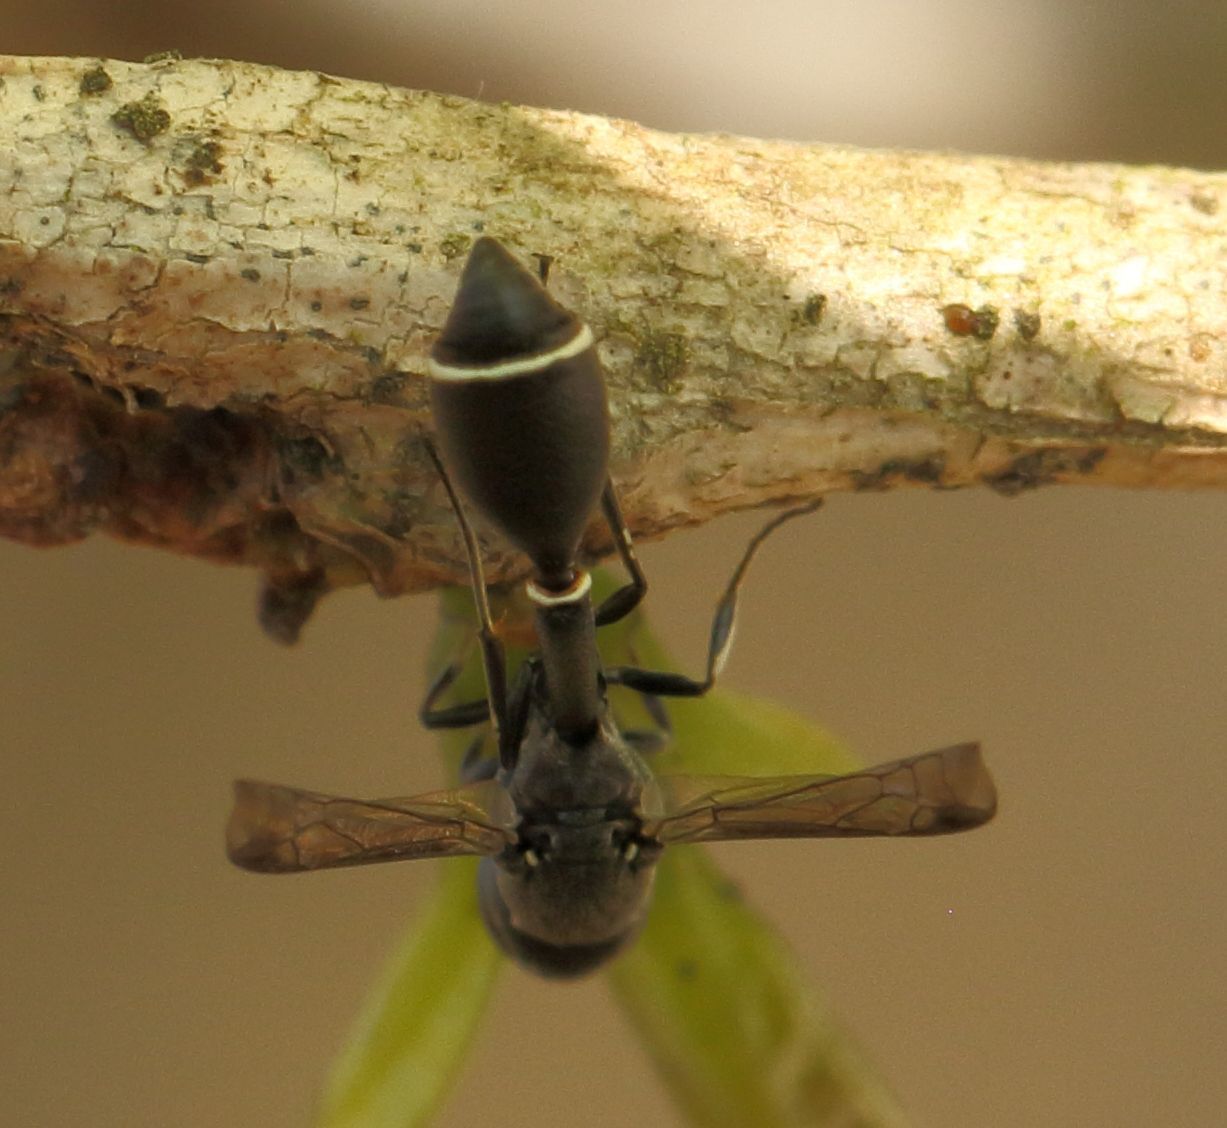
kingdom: Animalia
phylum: Arthropoda
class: Insecta
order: Hymenoptera
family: Eumenidae
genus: Micreumenes
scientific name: Micreumenes
